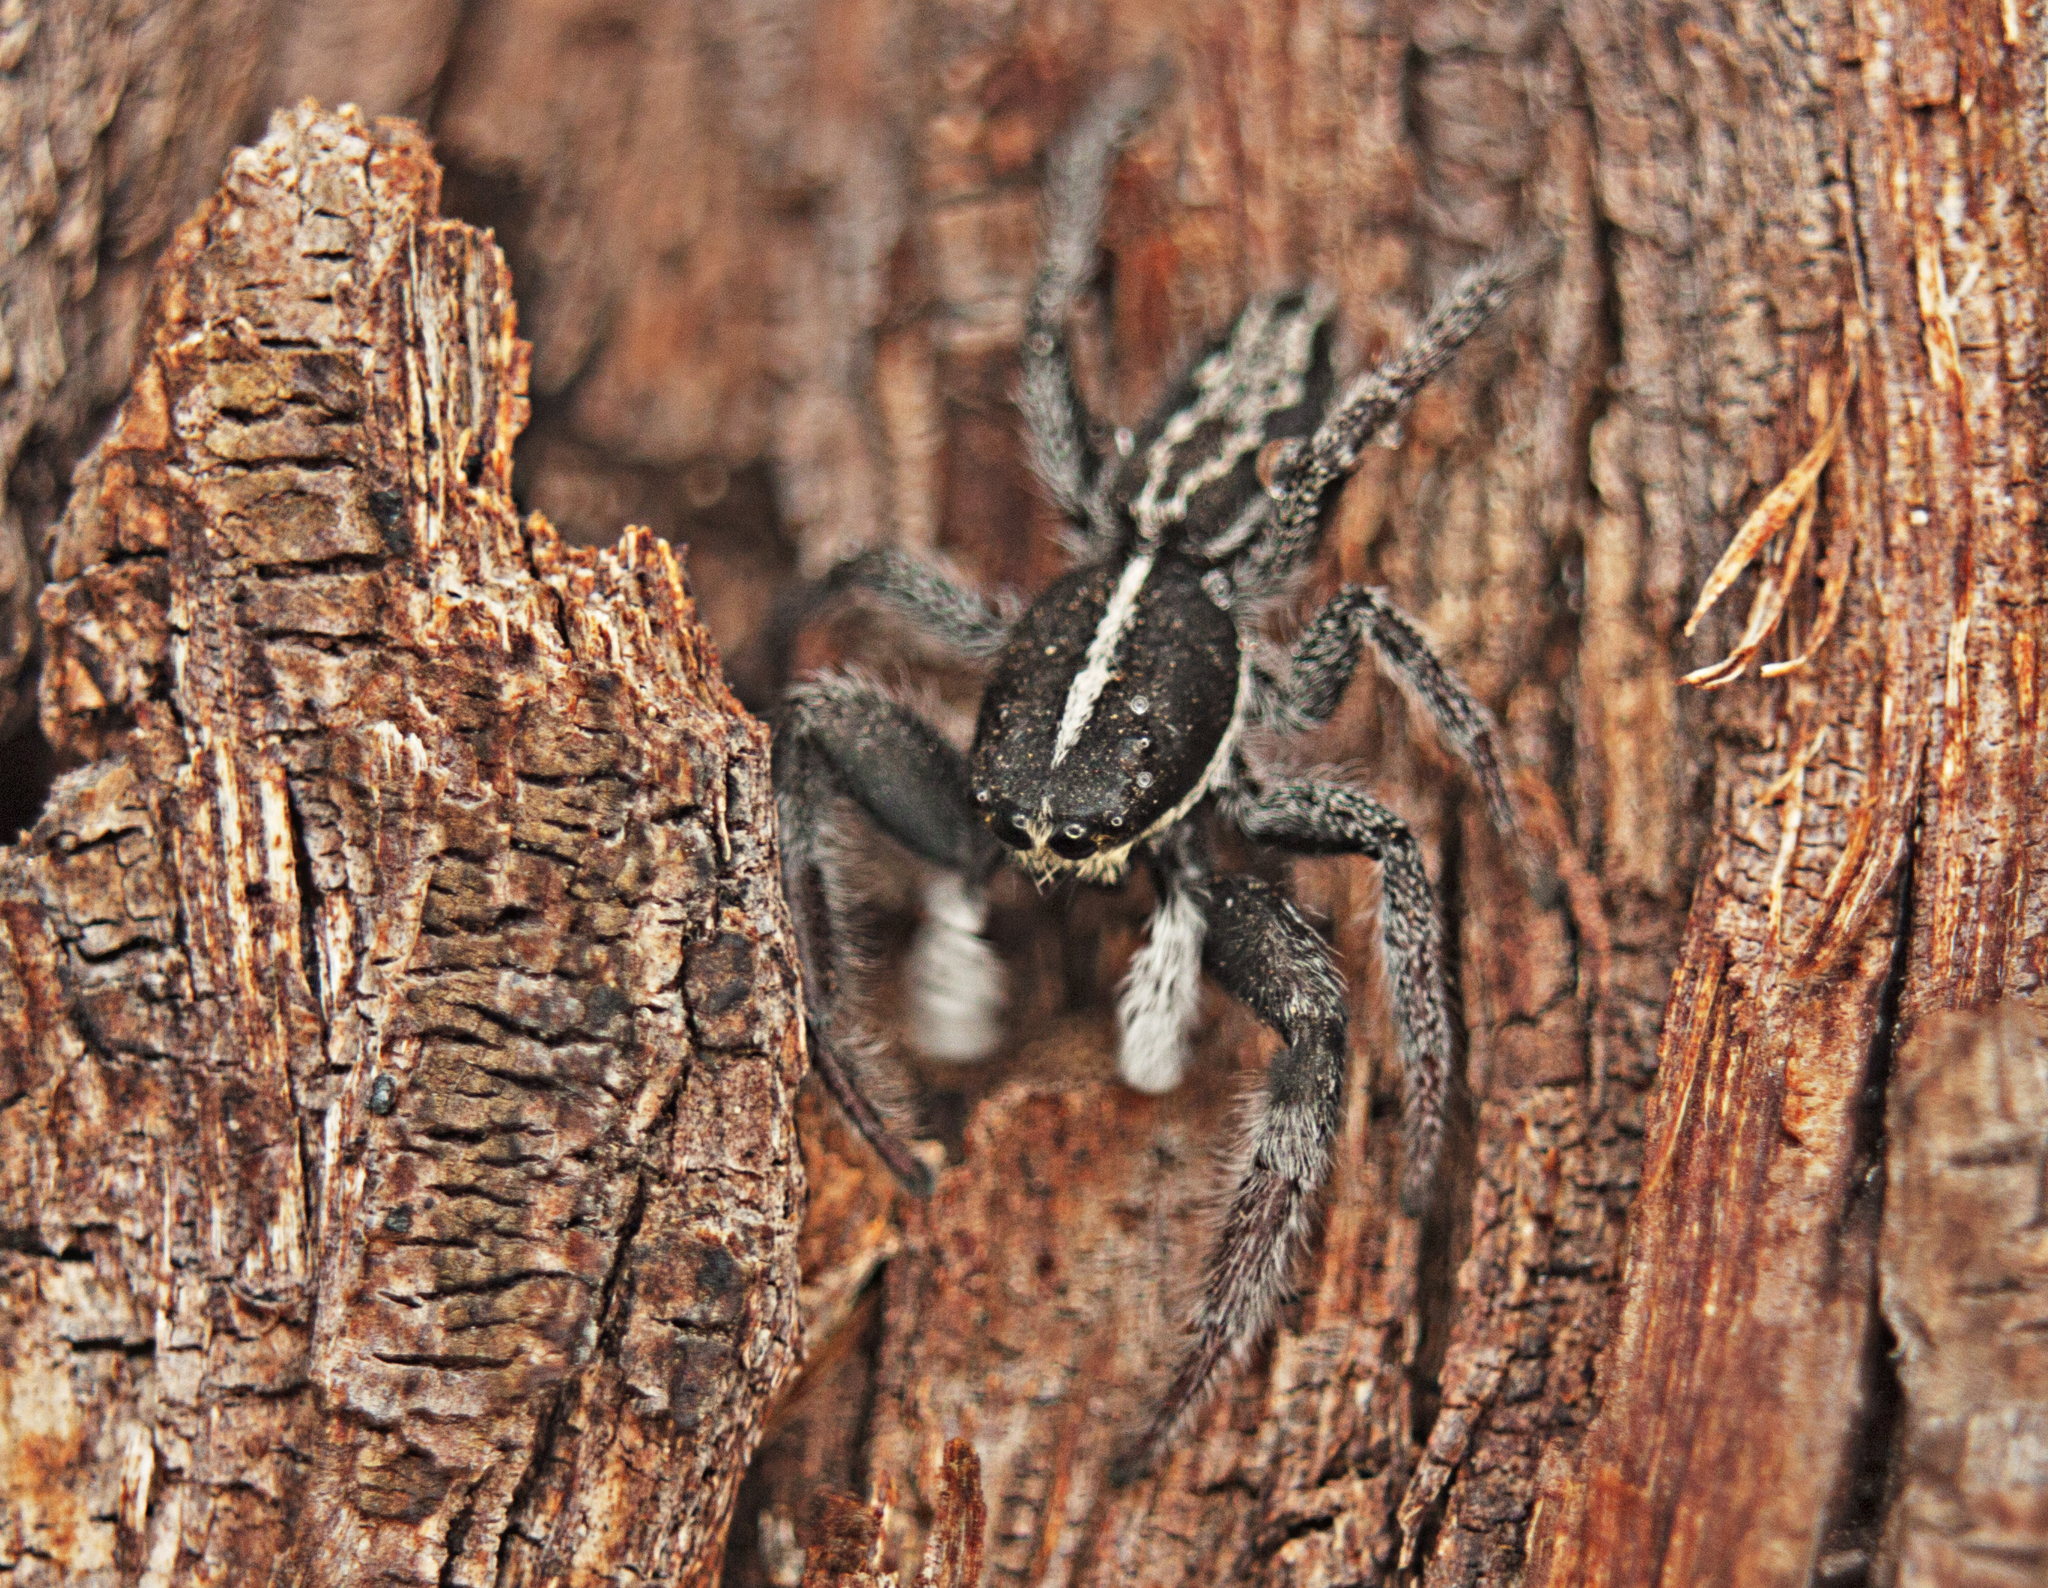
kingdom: Animalia
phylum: Arthropoda
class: Arachnida
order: Araneae
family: Salticidae
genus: Ocrisiona
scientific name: Ocrisiona leucocomis
